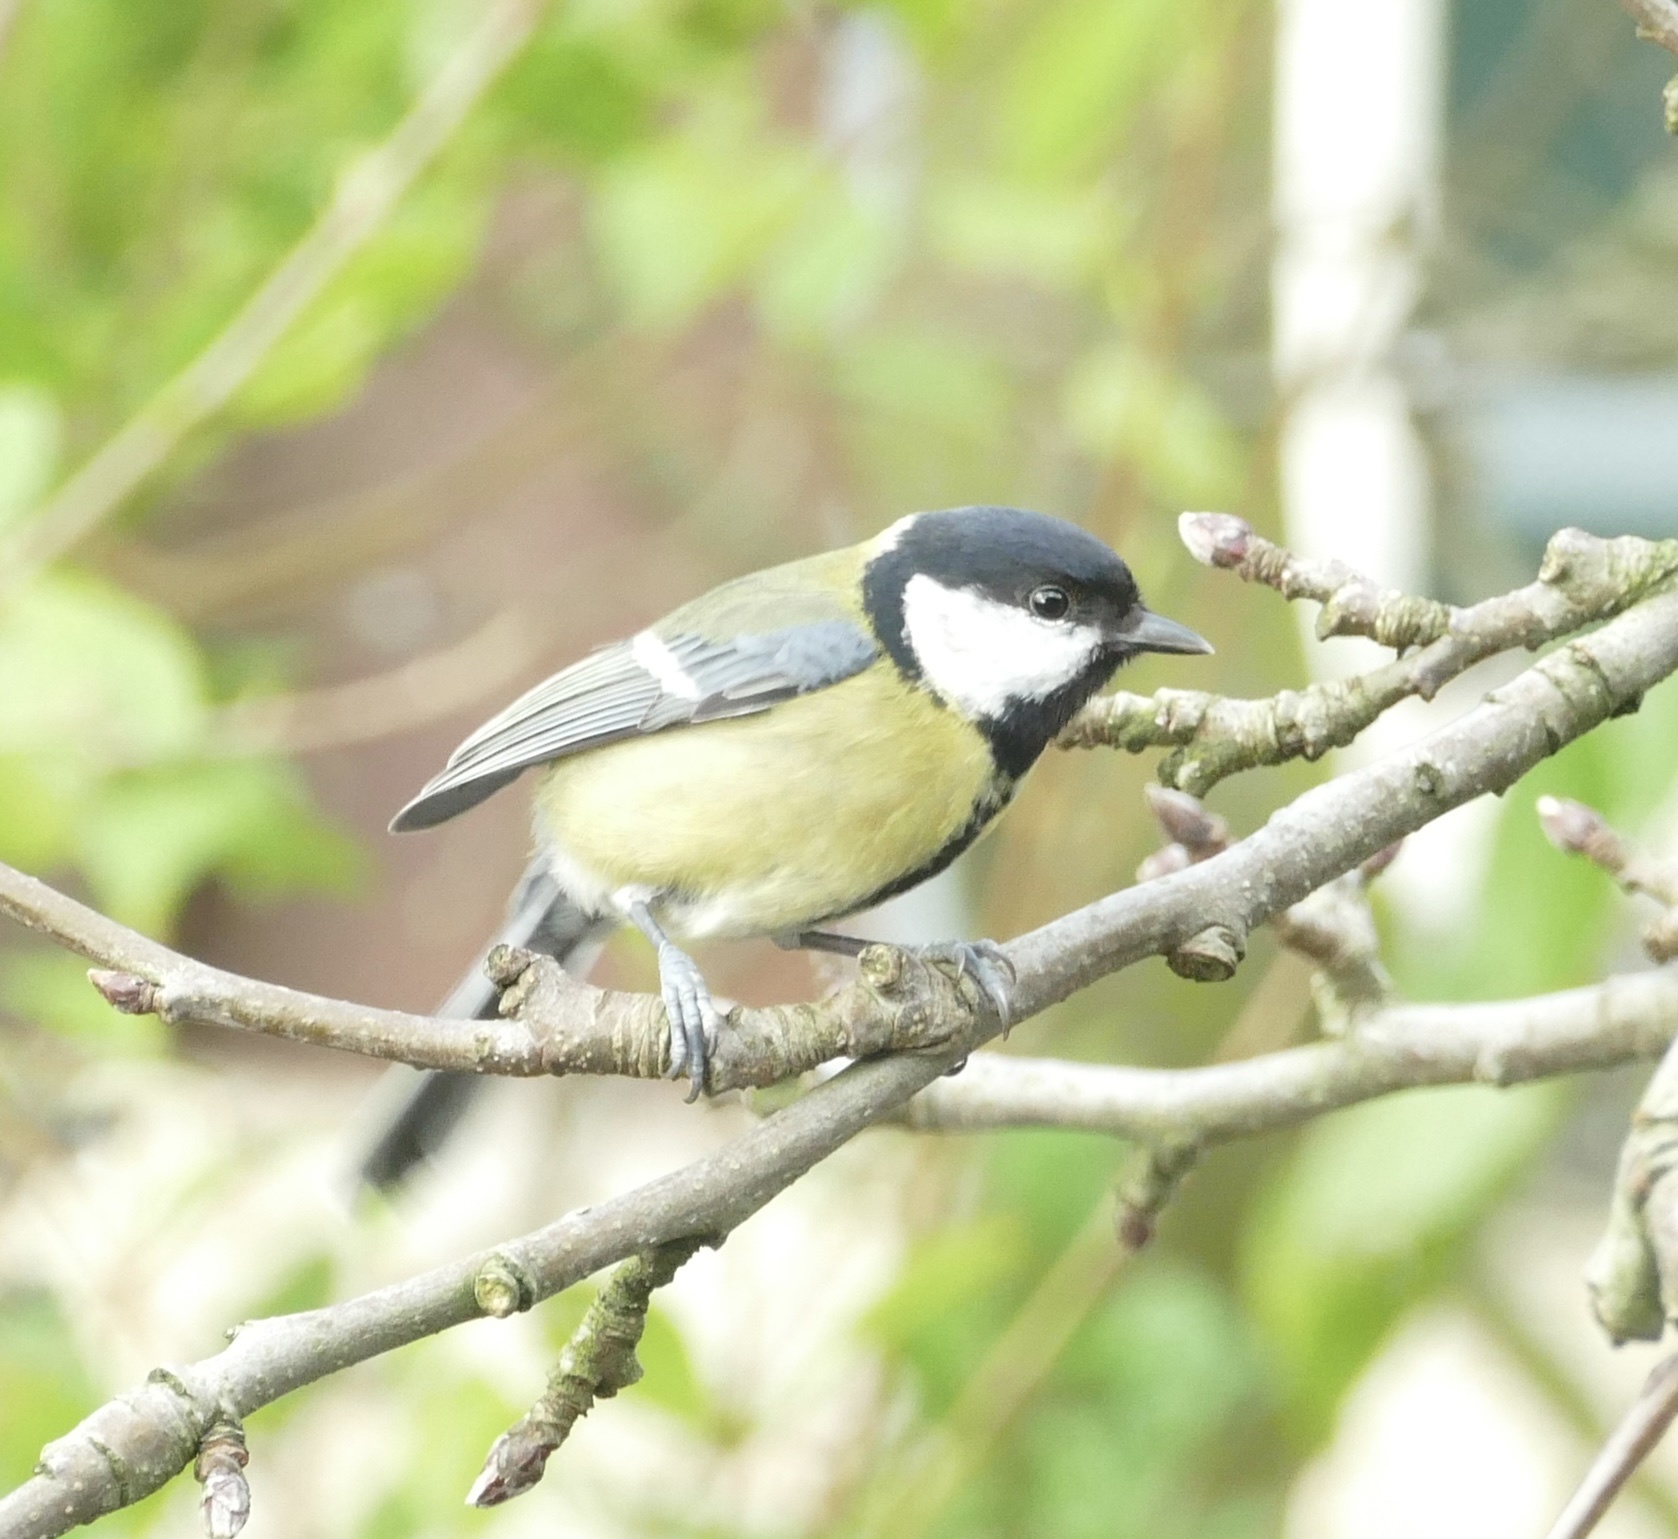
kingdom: Animalia
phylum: Chordata
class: Aves
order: Passeriformes
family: Paridae
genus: Parus
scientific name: Parus major
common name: Great tit
